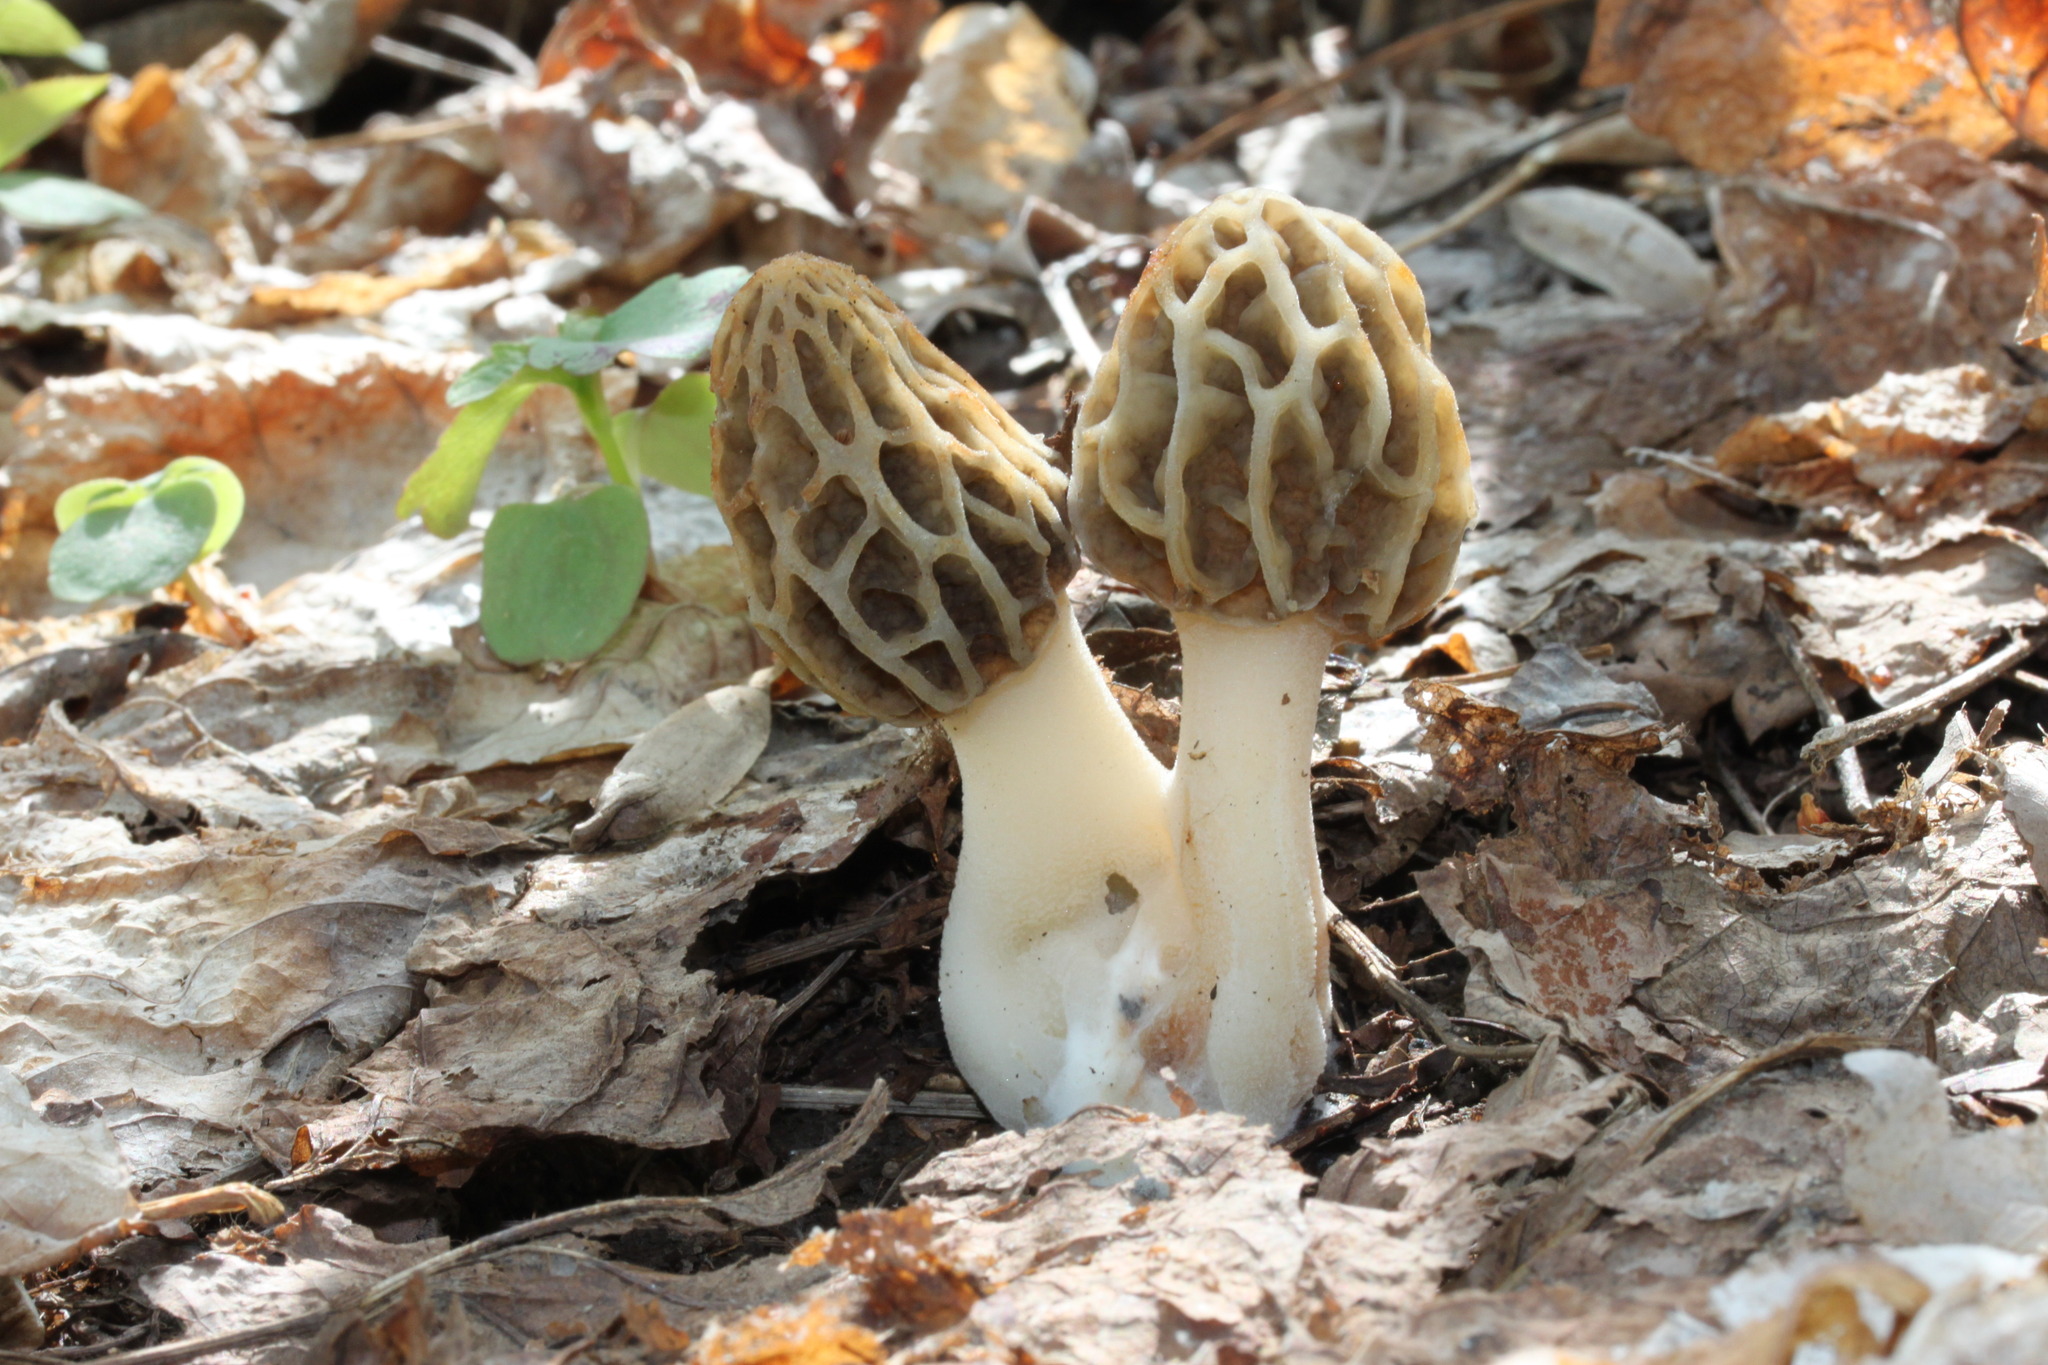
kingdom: Fungi
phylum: Ascomycota
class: Pezizomycetes
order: Pezizales
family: Morchellaceae
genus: Morchella
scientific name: Morchella diminutiva
